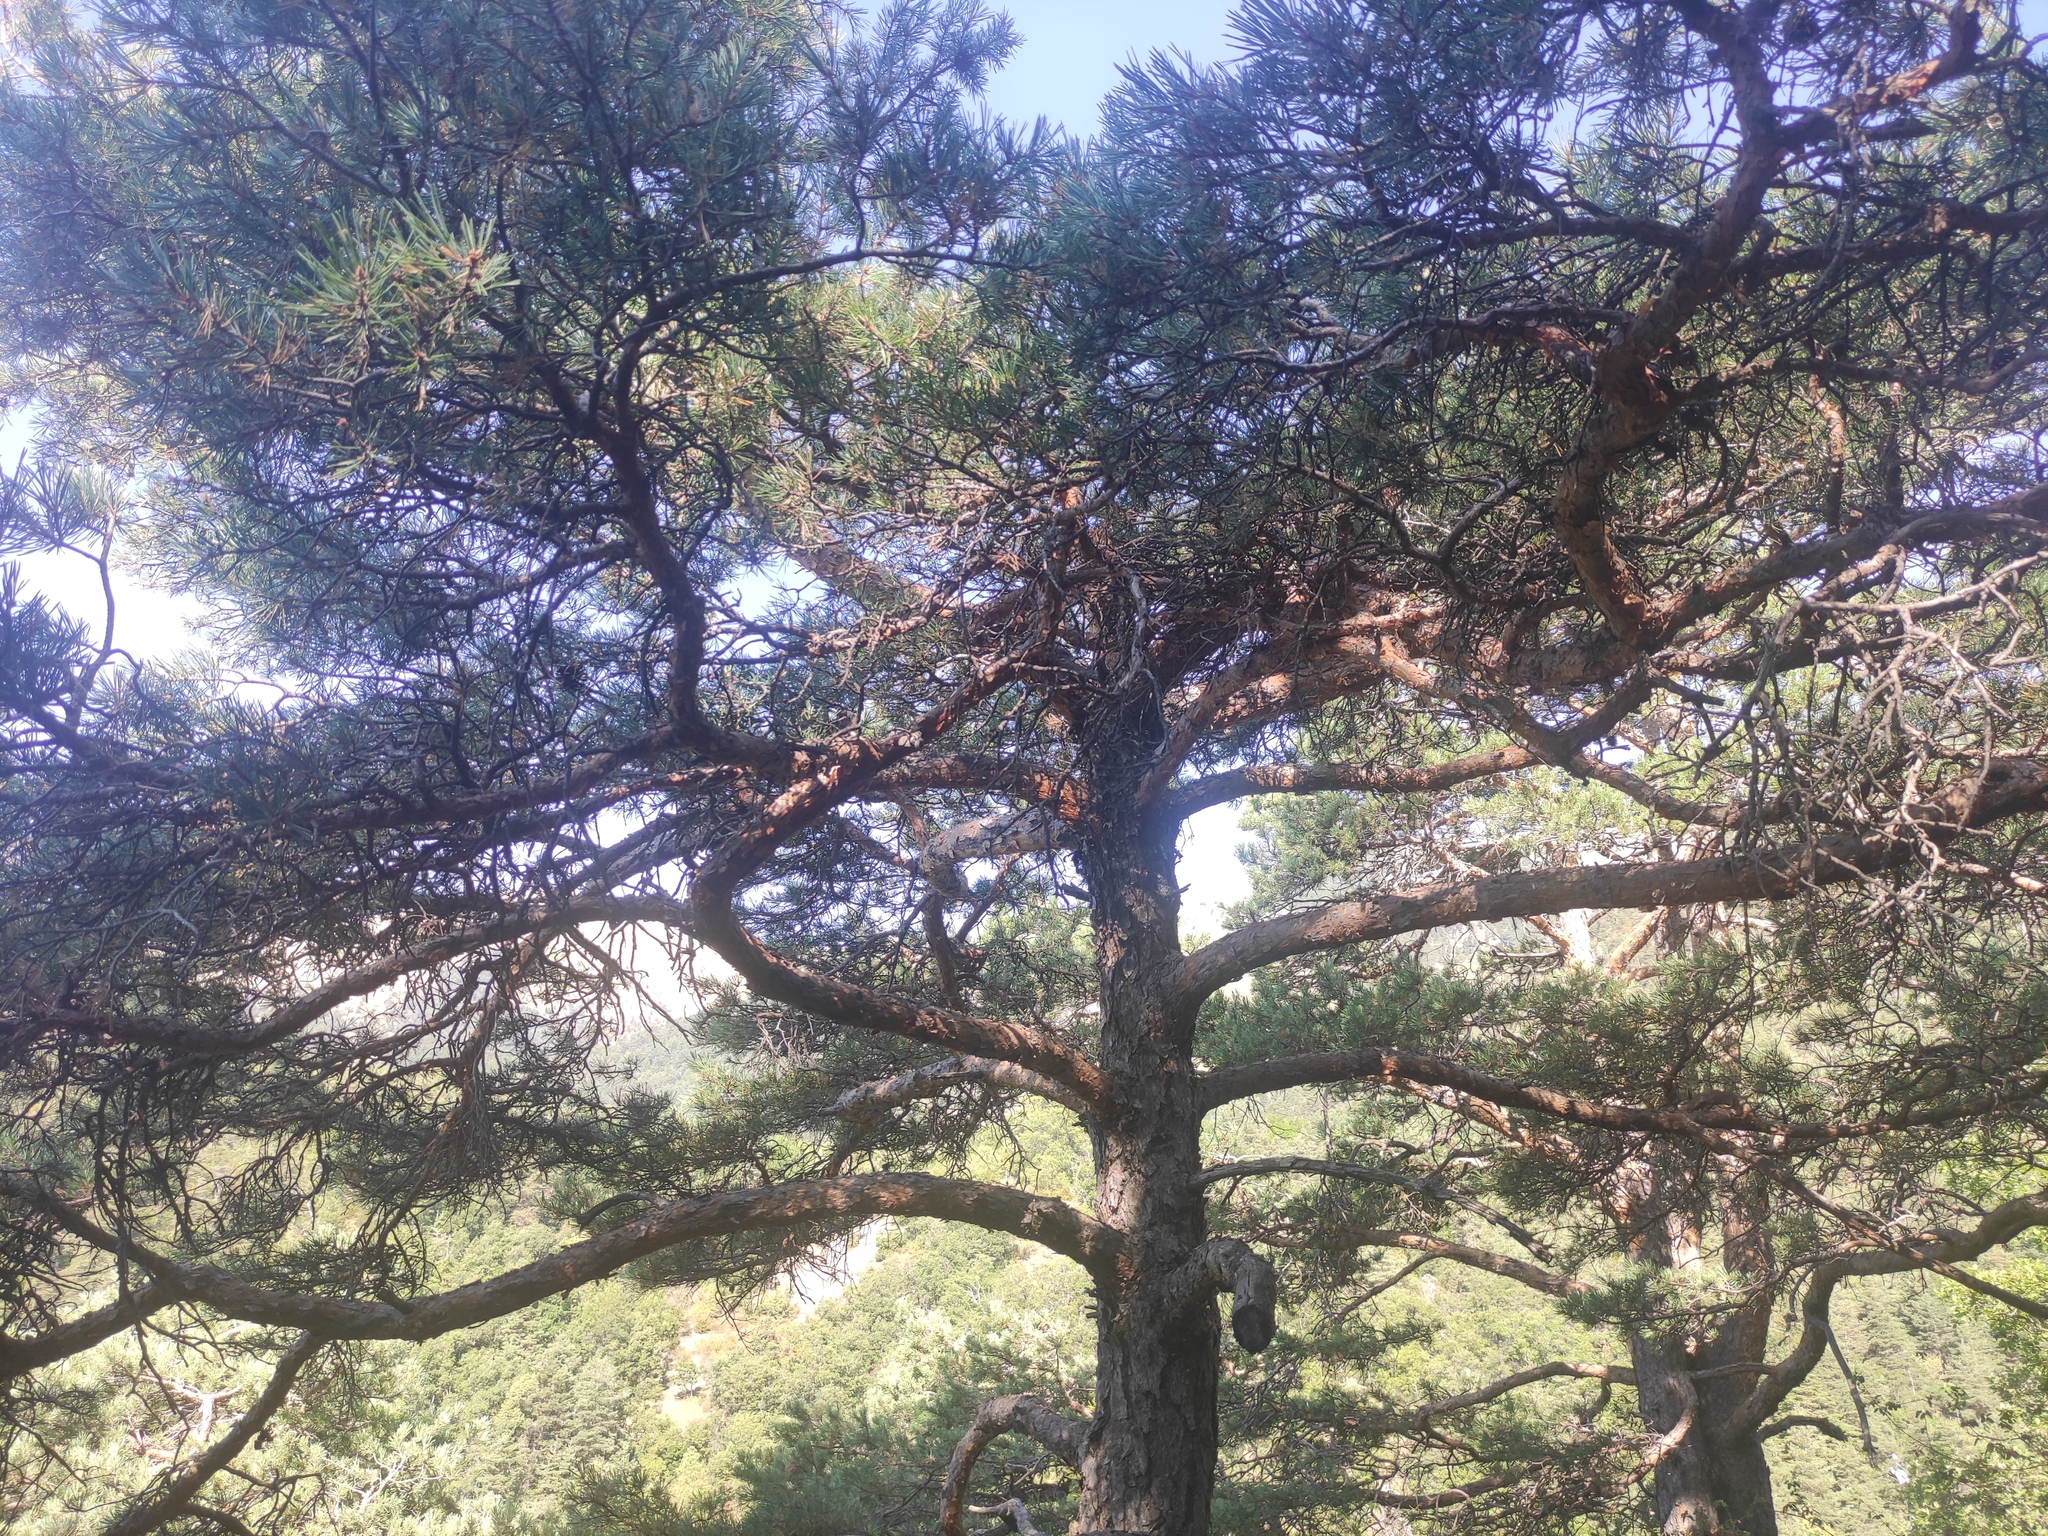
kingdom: Plantae
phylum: Tracheophyta
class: Pinopsida
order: Pinales
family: Pinaceae
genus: Pinus
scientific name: Pinus sylvestris
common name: Scots pine
